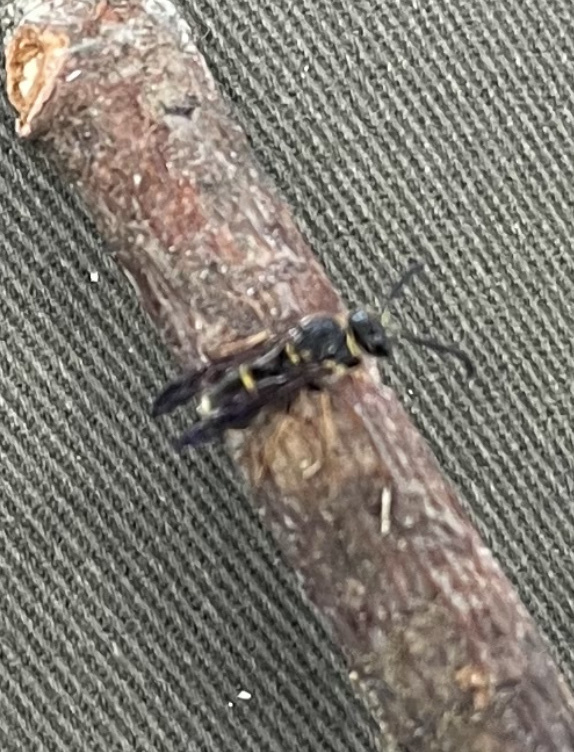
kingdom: Animalia
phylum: Arthropoda
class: Insecta
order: Hymenoptera
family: Eumenidae
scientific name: Eumenidae
